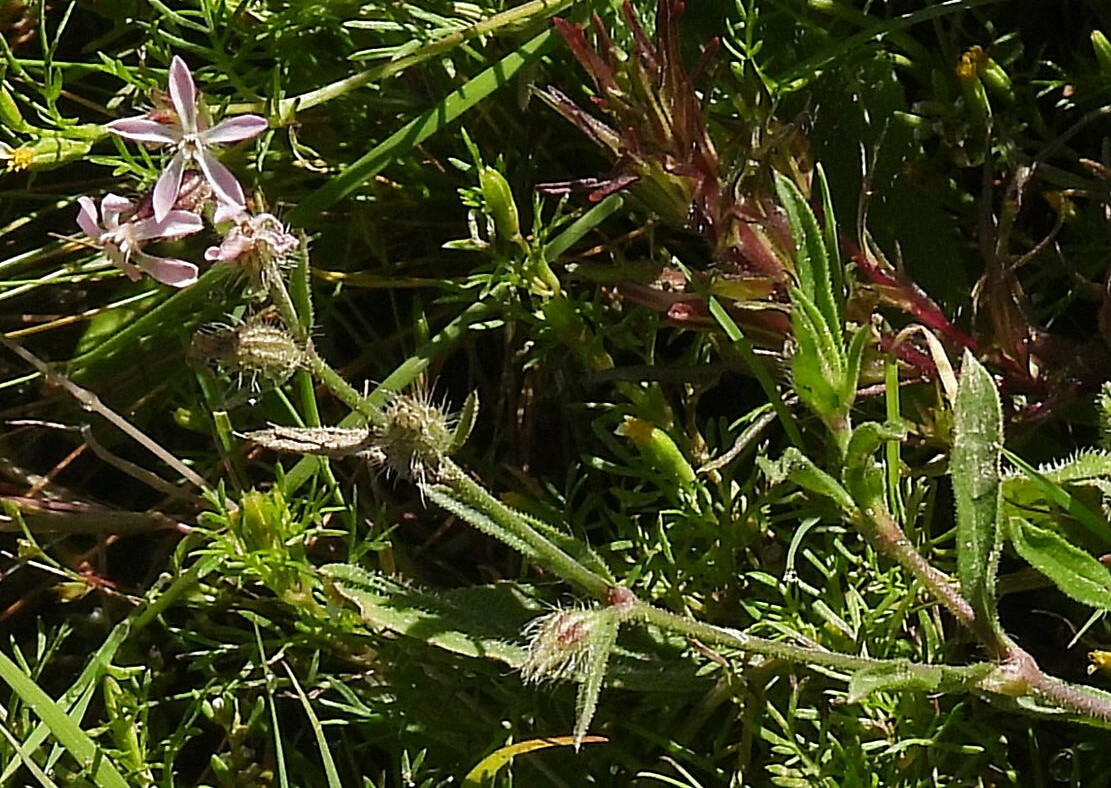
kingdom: Plantae
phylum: Tracheophyta
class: Magnoliopsida
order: Caryophyllales
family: Caryophyllaceae
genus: Silene
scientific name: Silene gallica
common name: Small-flowered catchfly
